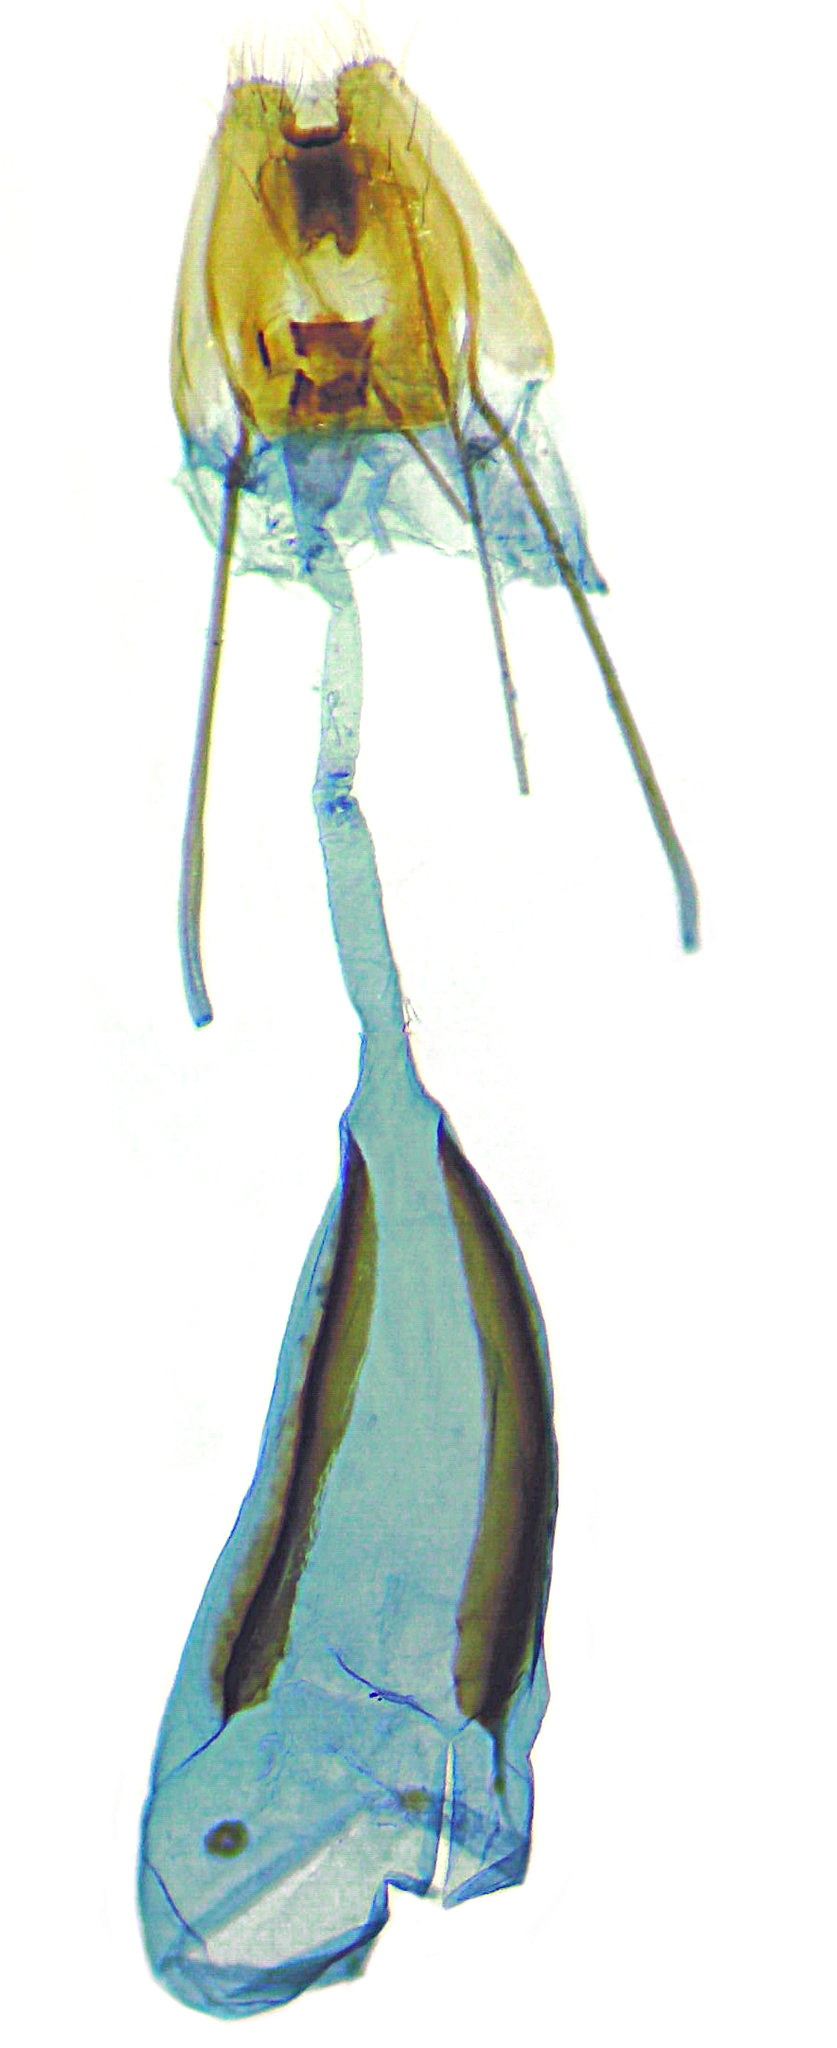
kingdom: Animalia
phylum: Arthropoda
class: Insecta
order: Lepidoptera
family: Tineidae
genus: Niditinea
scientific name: Niditinea fuscella
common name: Brown-dotted clothes moth
